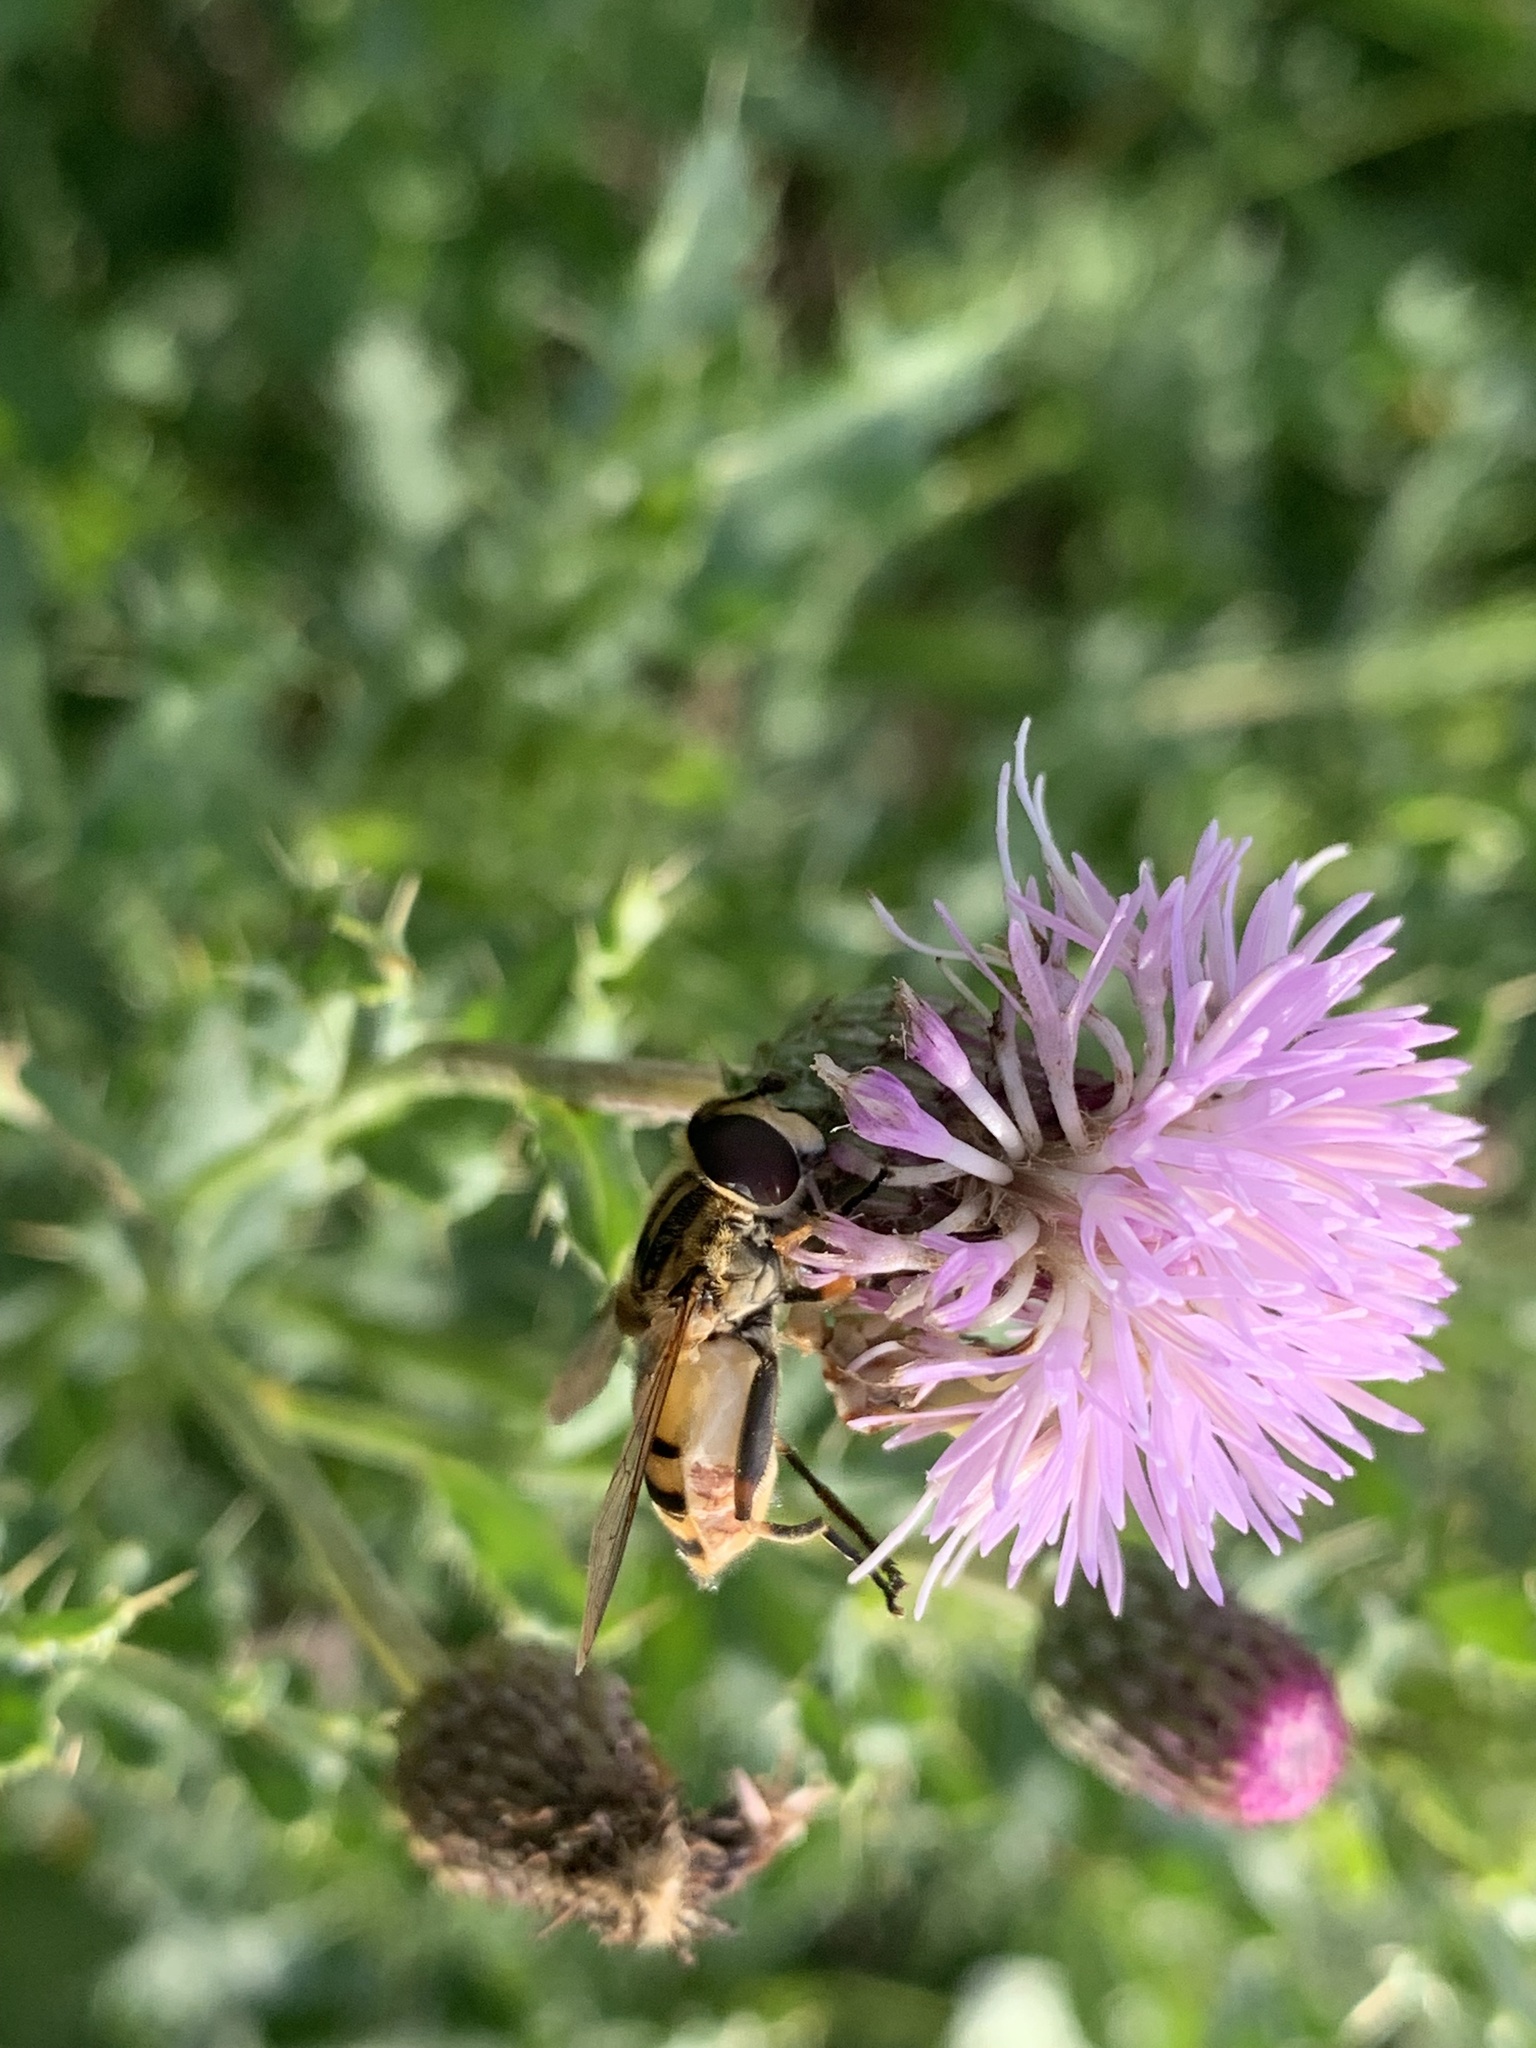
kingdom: Animalia
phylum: Arthropoda
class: Insecta
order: Diptera
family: Syrphidae
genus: Helophilus
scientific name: Helophilus hybridus
